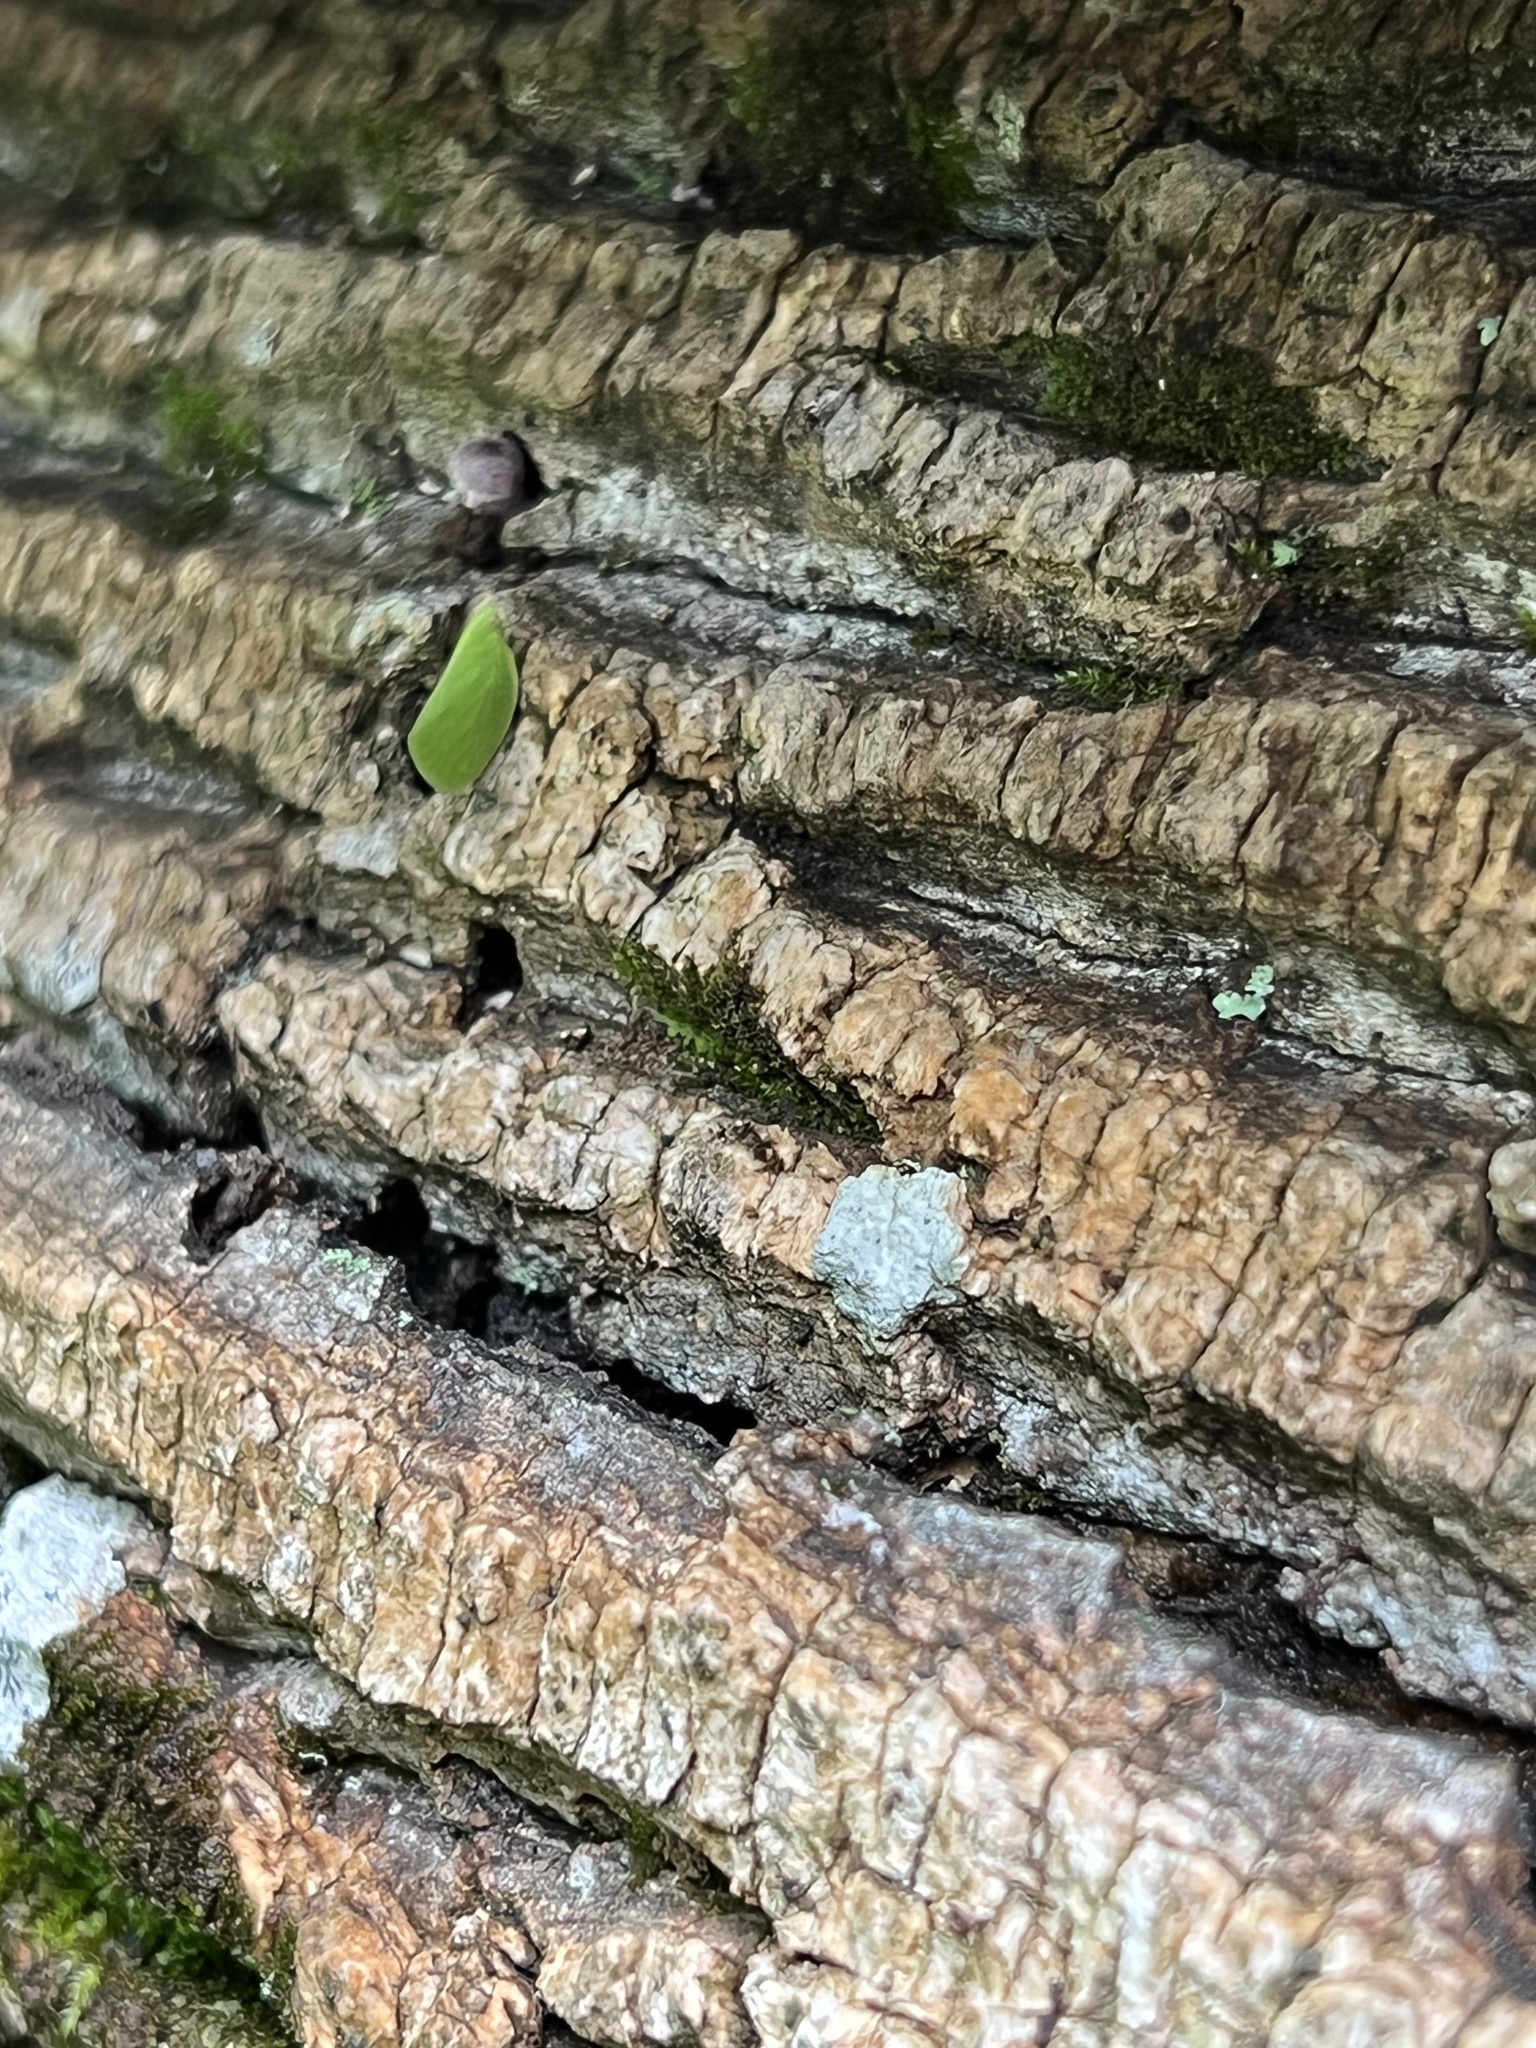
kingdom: Animalia
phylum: Arthropoda
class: Insecta
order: Hemiptera
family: Acanaloniidae
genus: Acanalonia
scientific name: Acanalonia conica
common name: Green cone-headed planthopper
